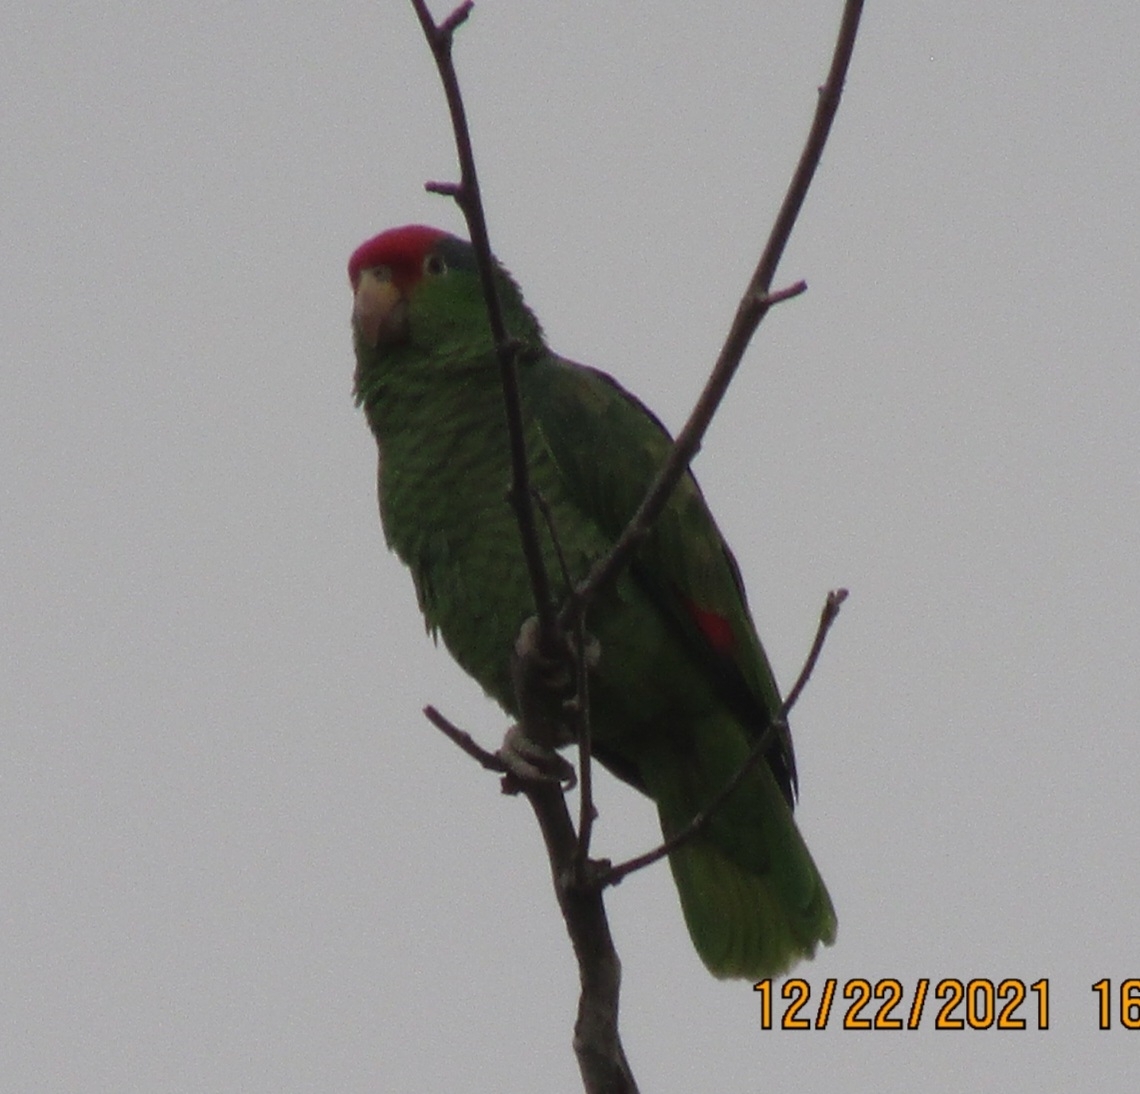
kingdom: Animalia
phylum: Chordata
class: Aves
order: Psittaciformes
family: Psittacidae
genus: Amazona
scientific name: Amazona viridigenalis
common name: Red-crowned amazon
